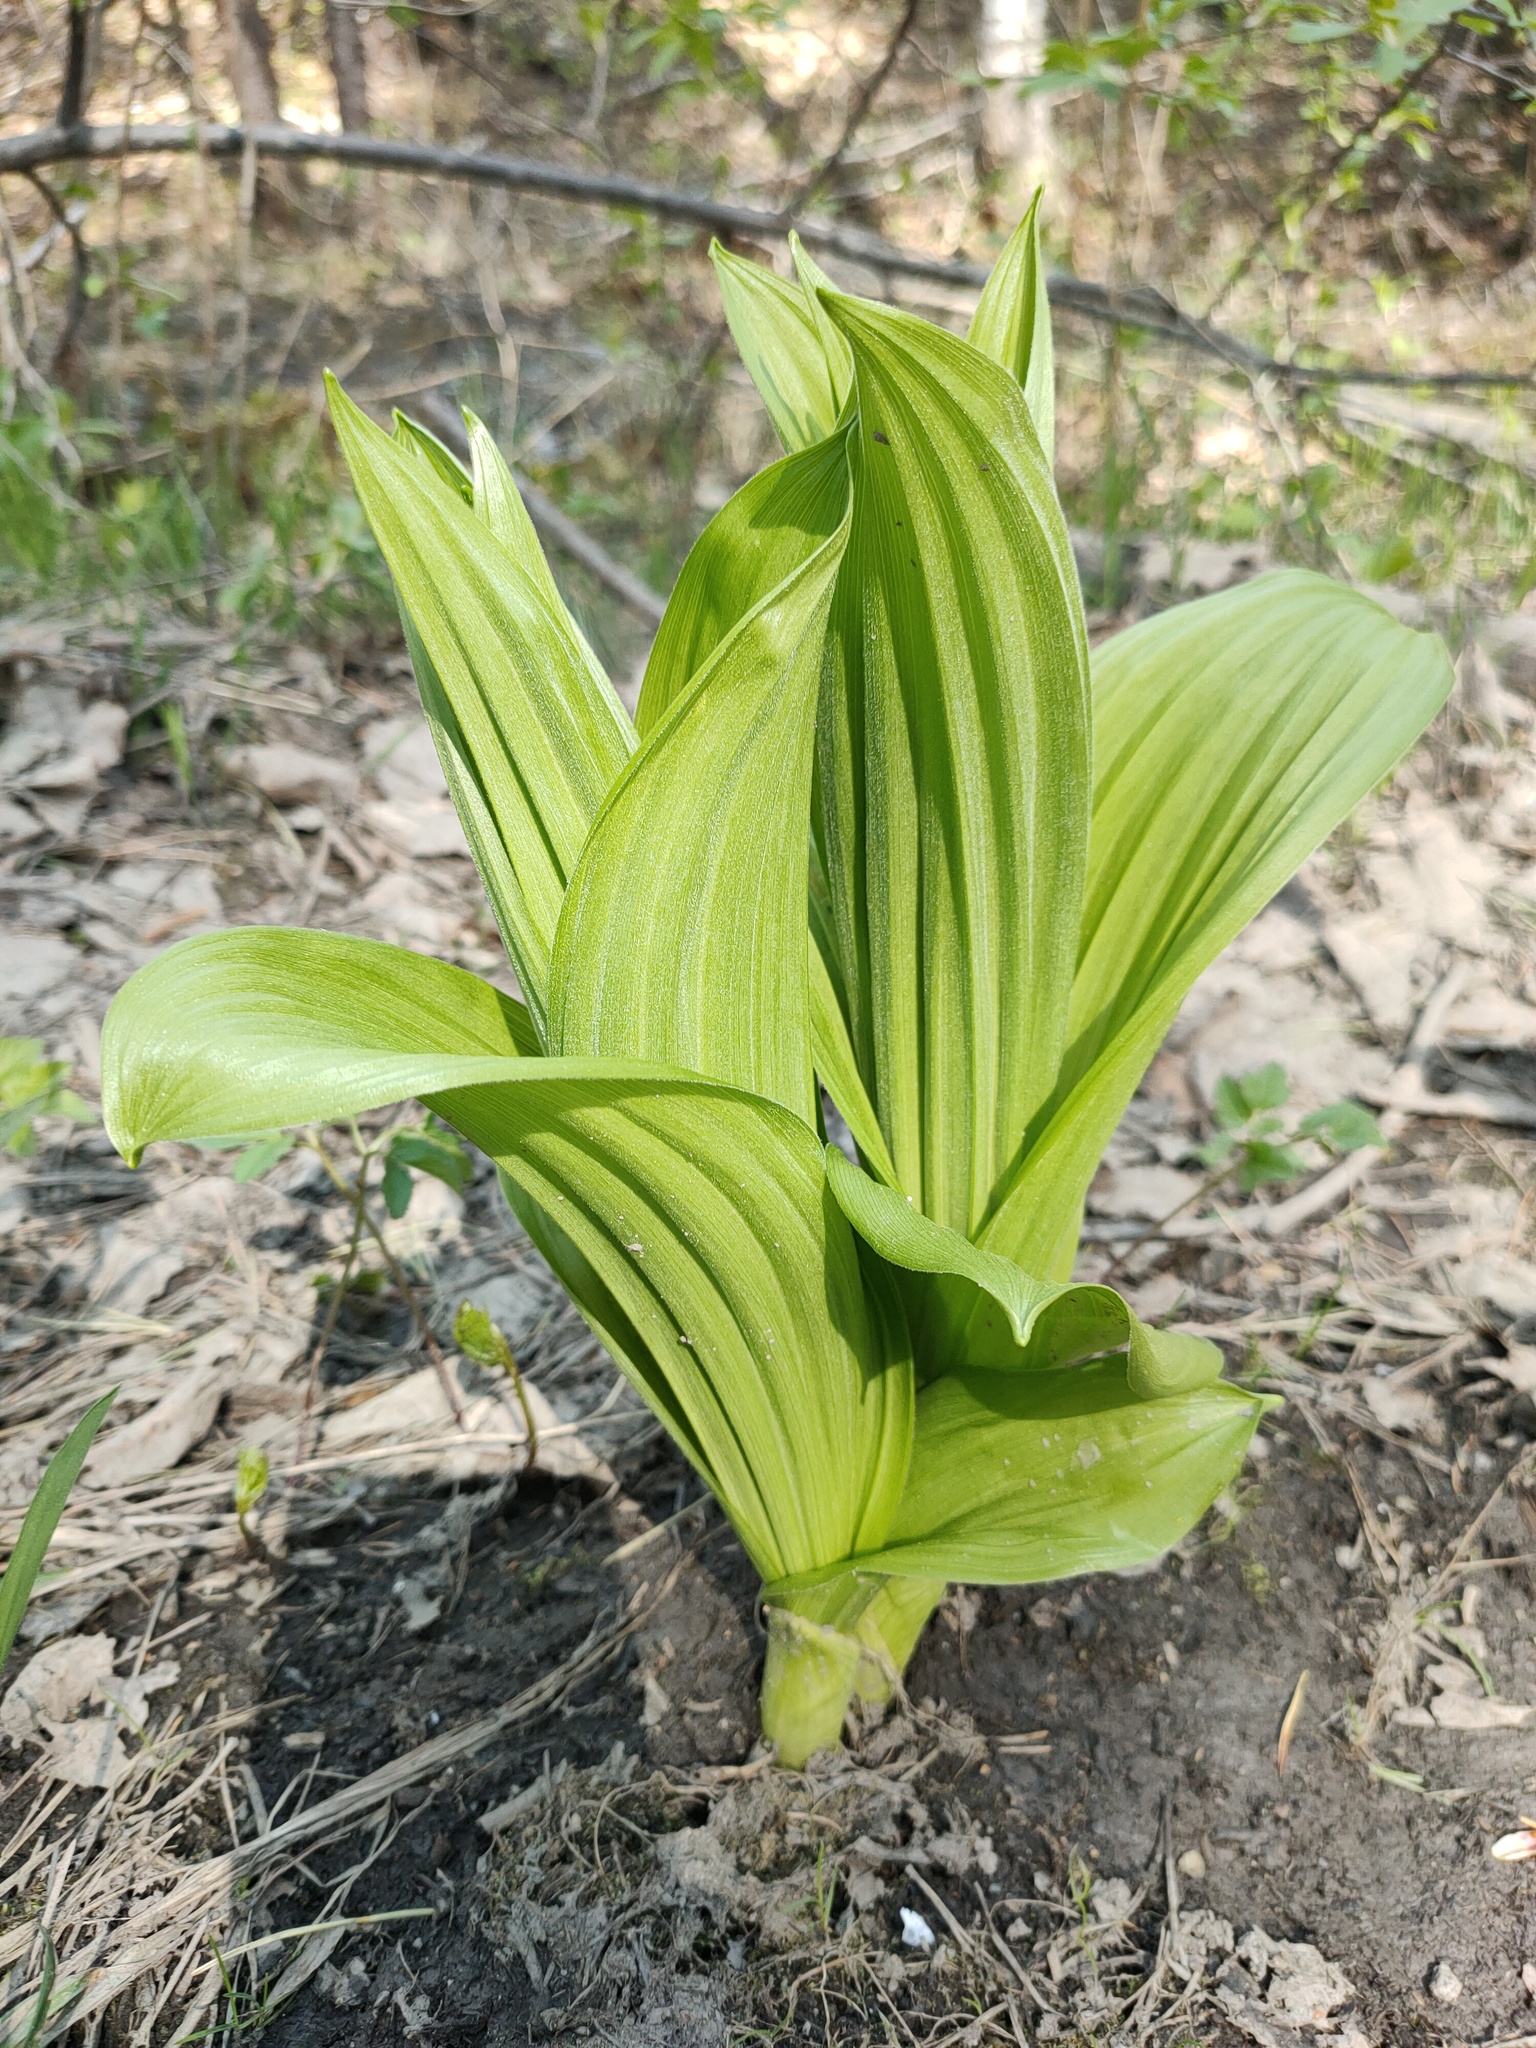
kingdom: Plantae
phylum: Tracheophyta
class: Liliopsida
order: Liliales
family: Melanthiaceae
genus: Veratrum
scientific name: Veratrum lobelianum
